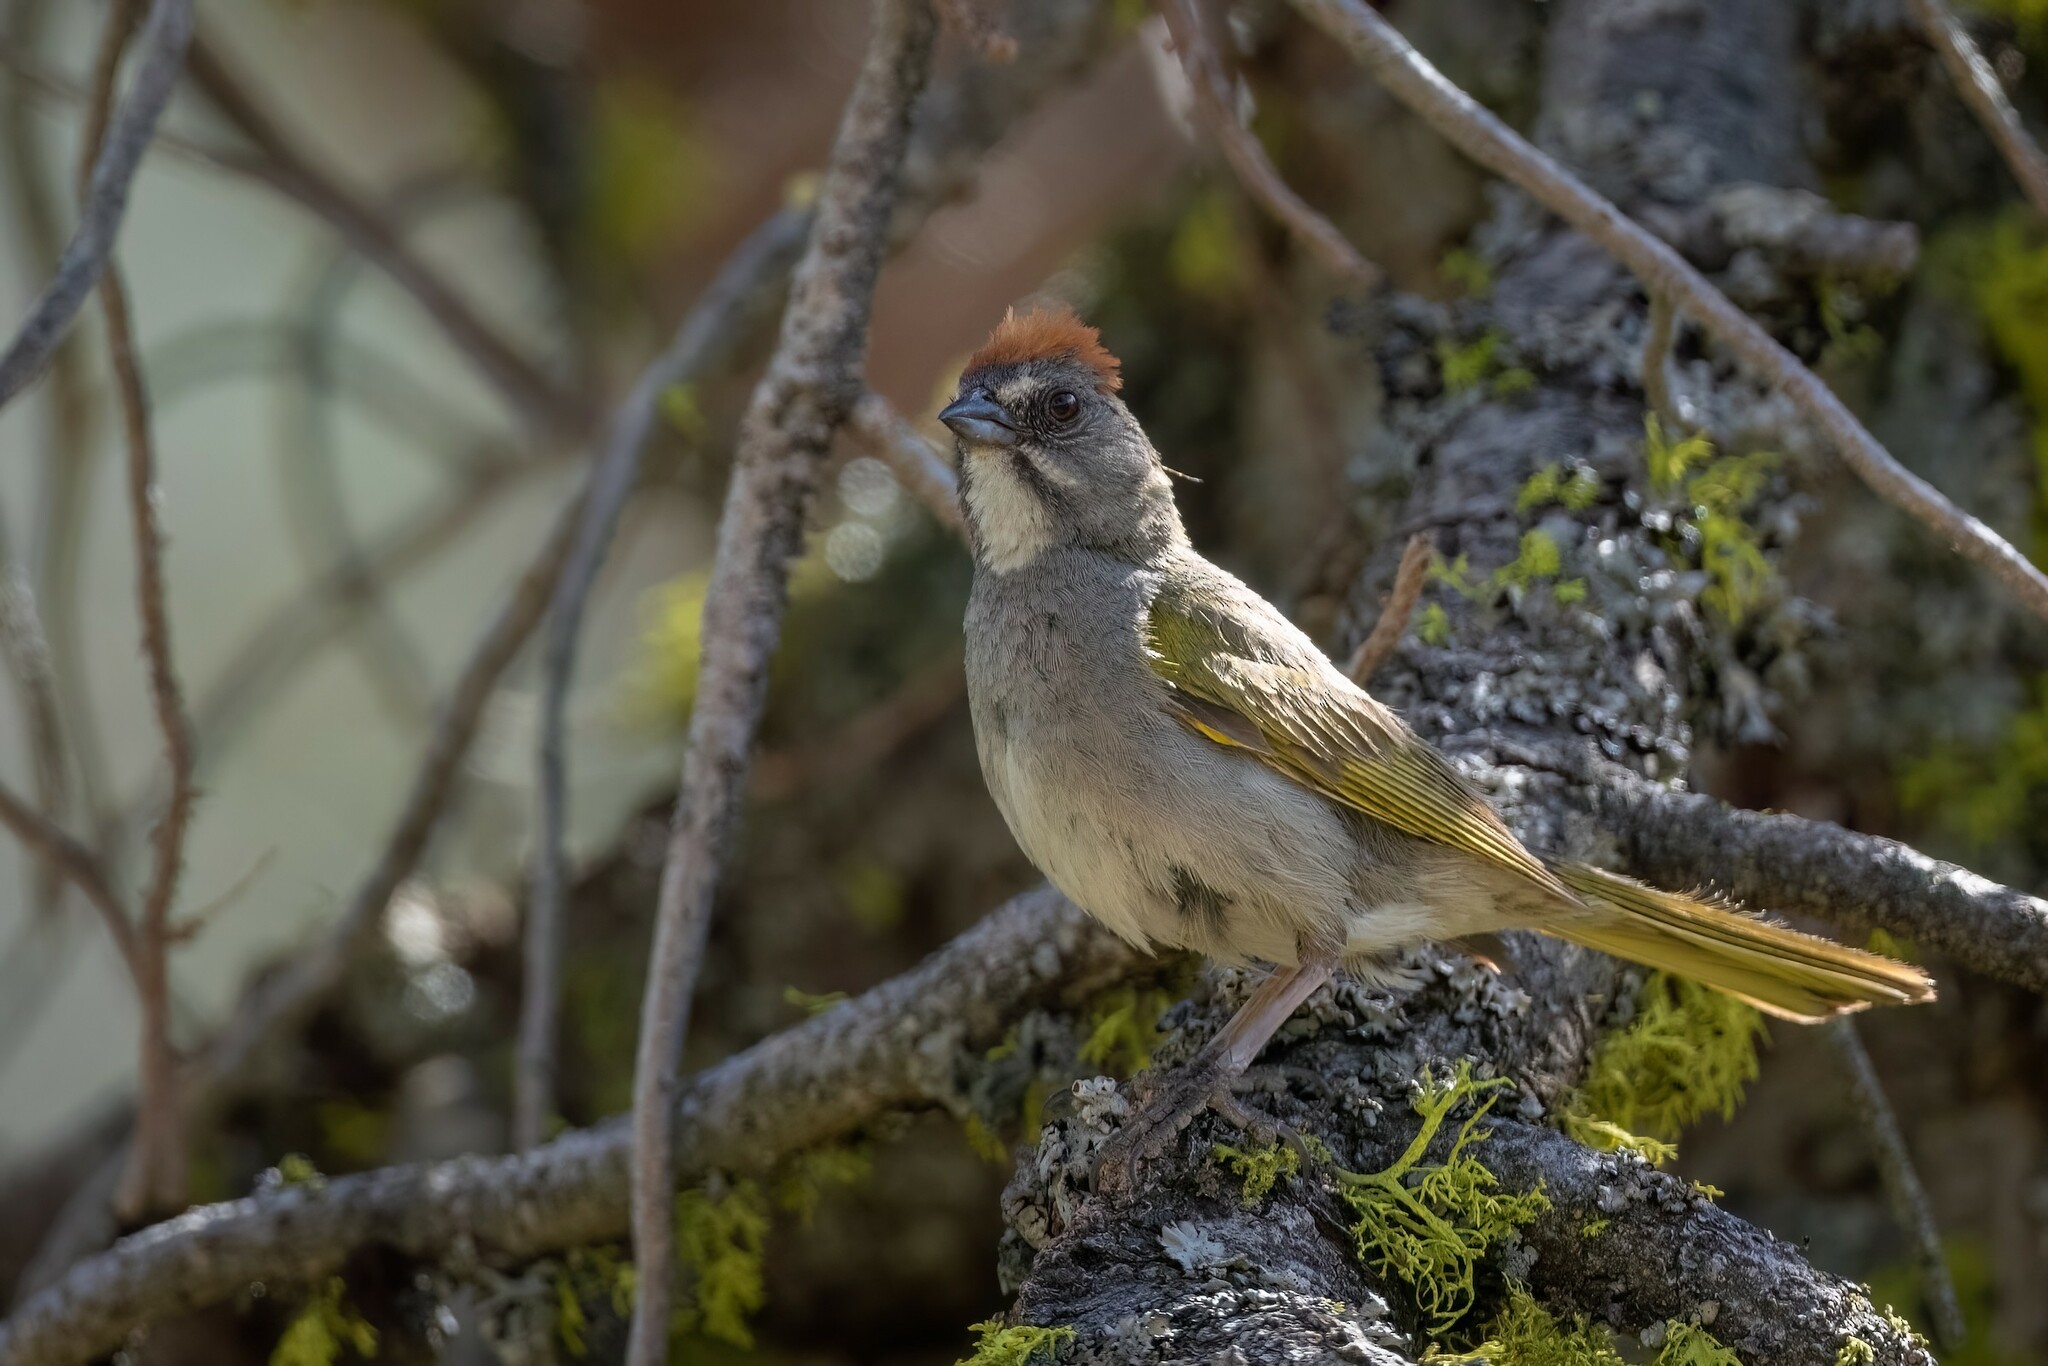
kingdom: Animalia
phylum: Chordata
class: Aves
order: Passeriformes
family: Passerellidae
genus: Pipilo
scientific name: Pipilo chlorurus
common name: Green-tailed towhee
